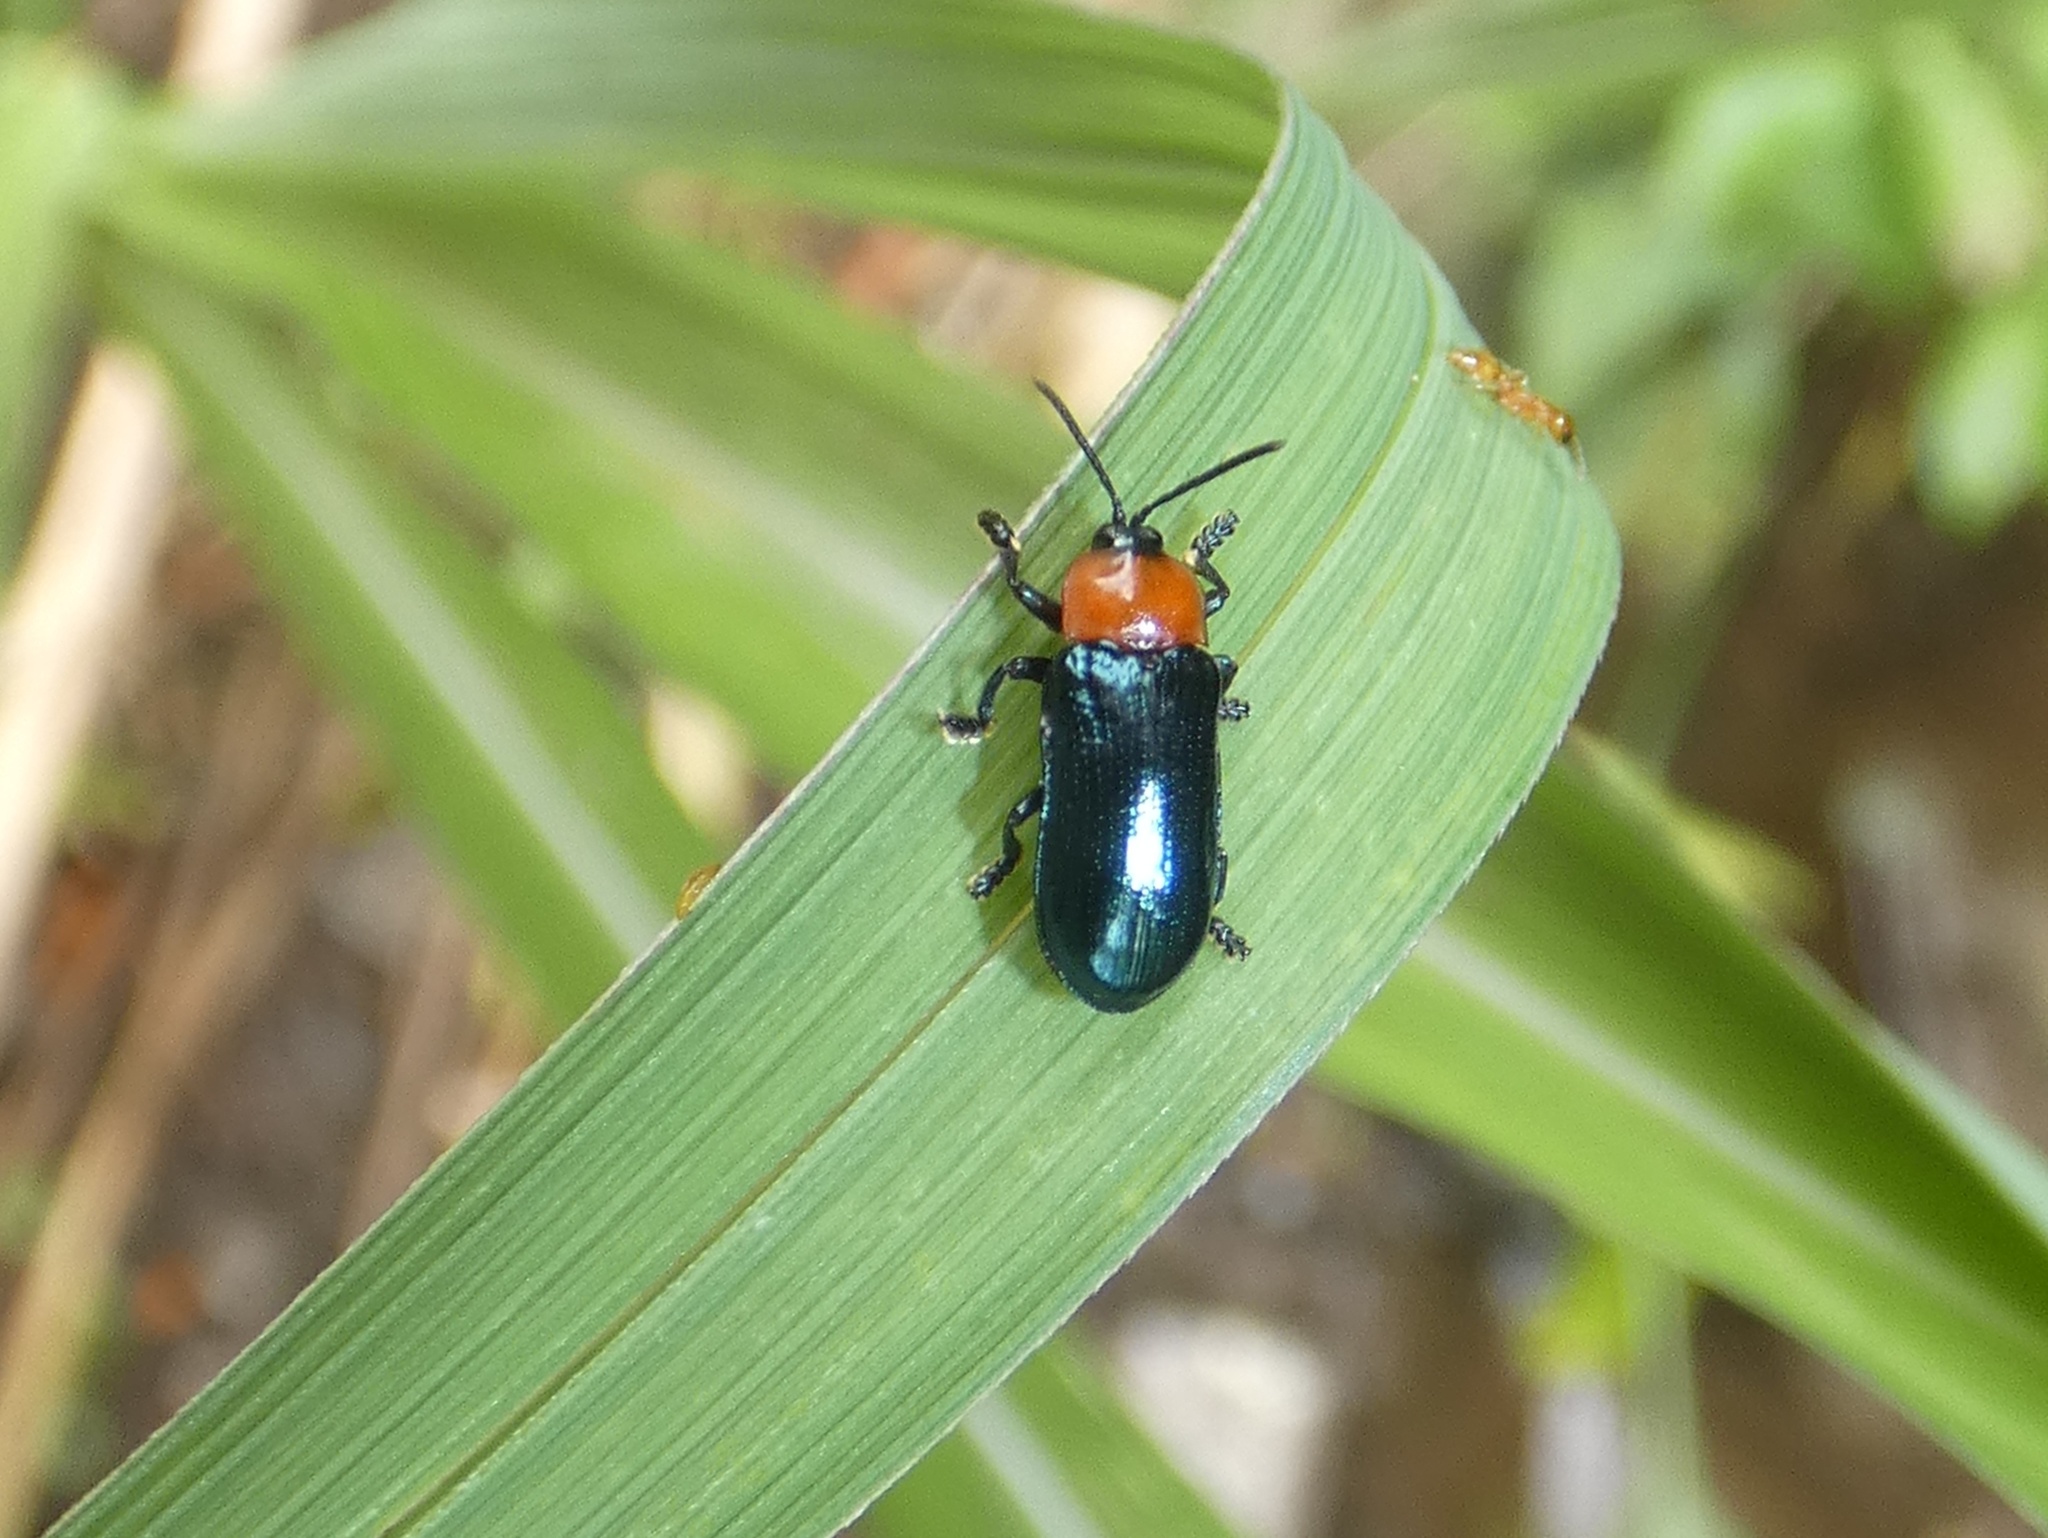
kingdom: Animalia
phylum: Arthropoda
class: Insecta
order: Coleoptera
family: Chrysomelidae
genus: Oediopalpa
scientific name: Oediopalpa guerinii
